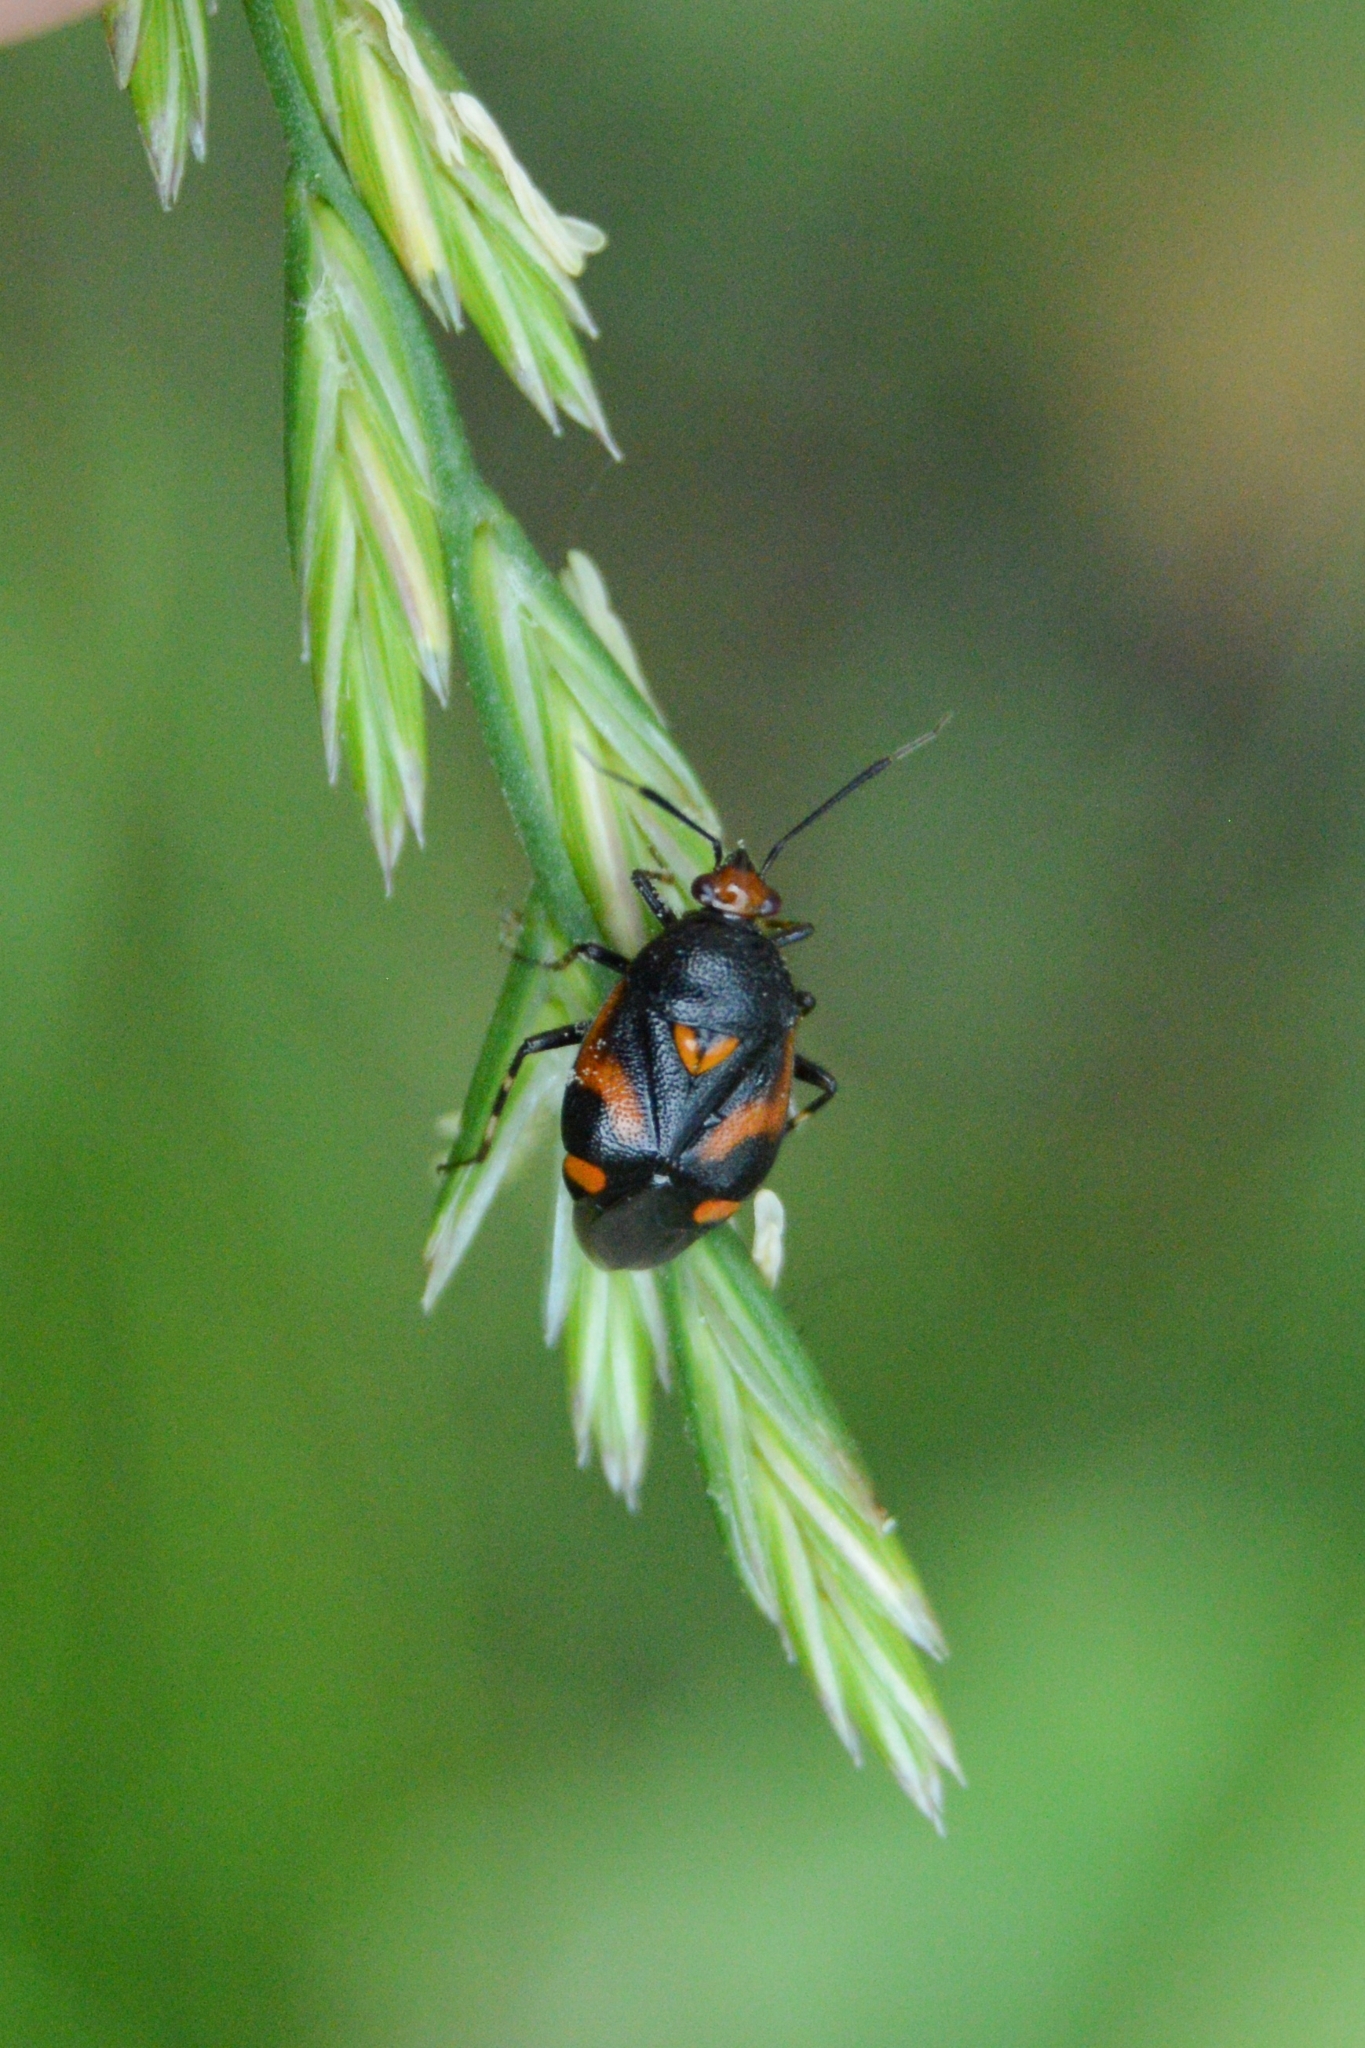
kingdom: Animalia
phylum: Arthropoda
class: Insecta
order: Hemiptera
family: Miridae
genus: Deraeocoris
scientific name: Deraeocoris schach
